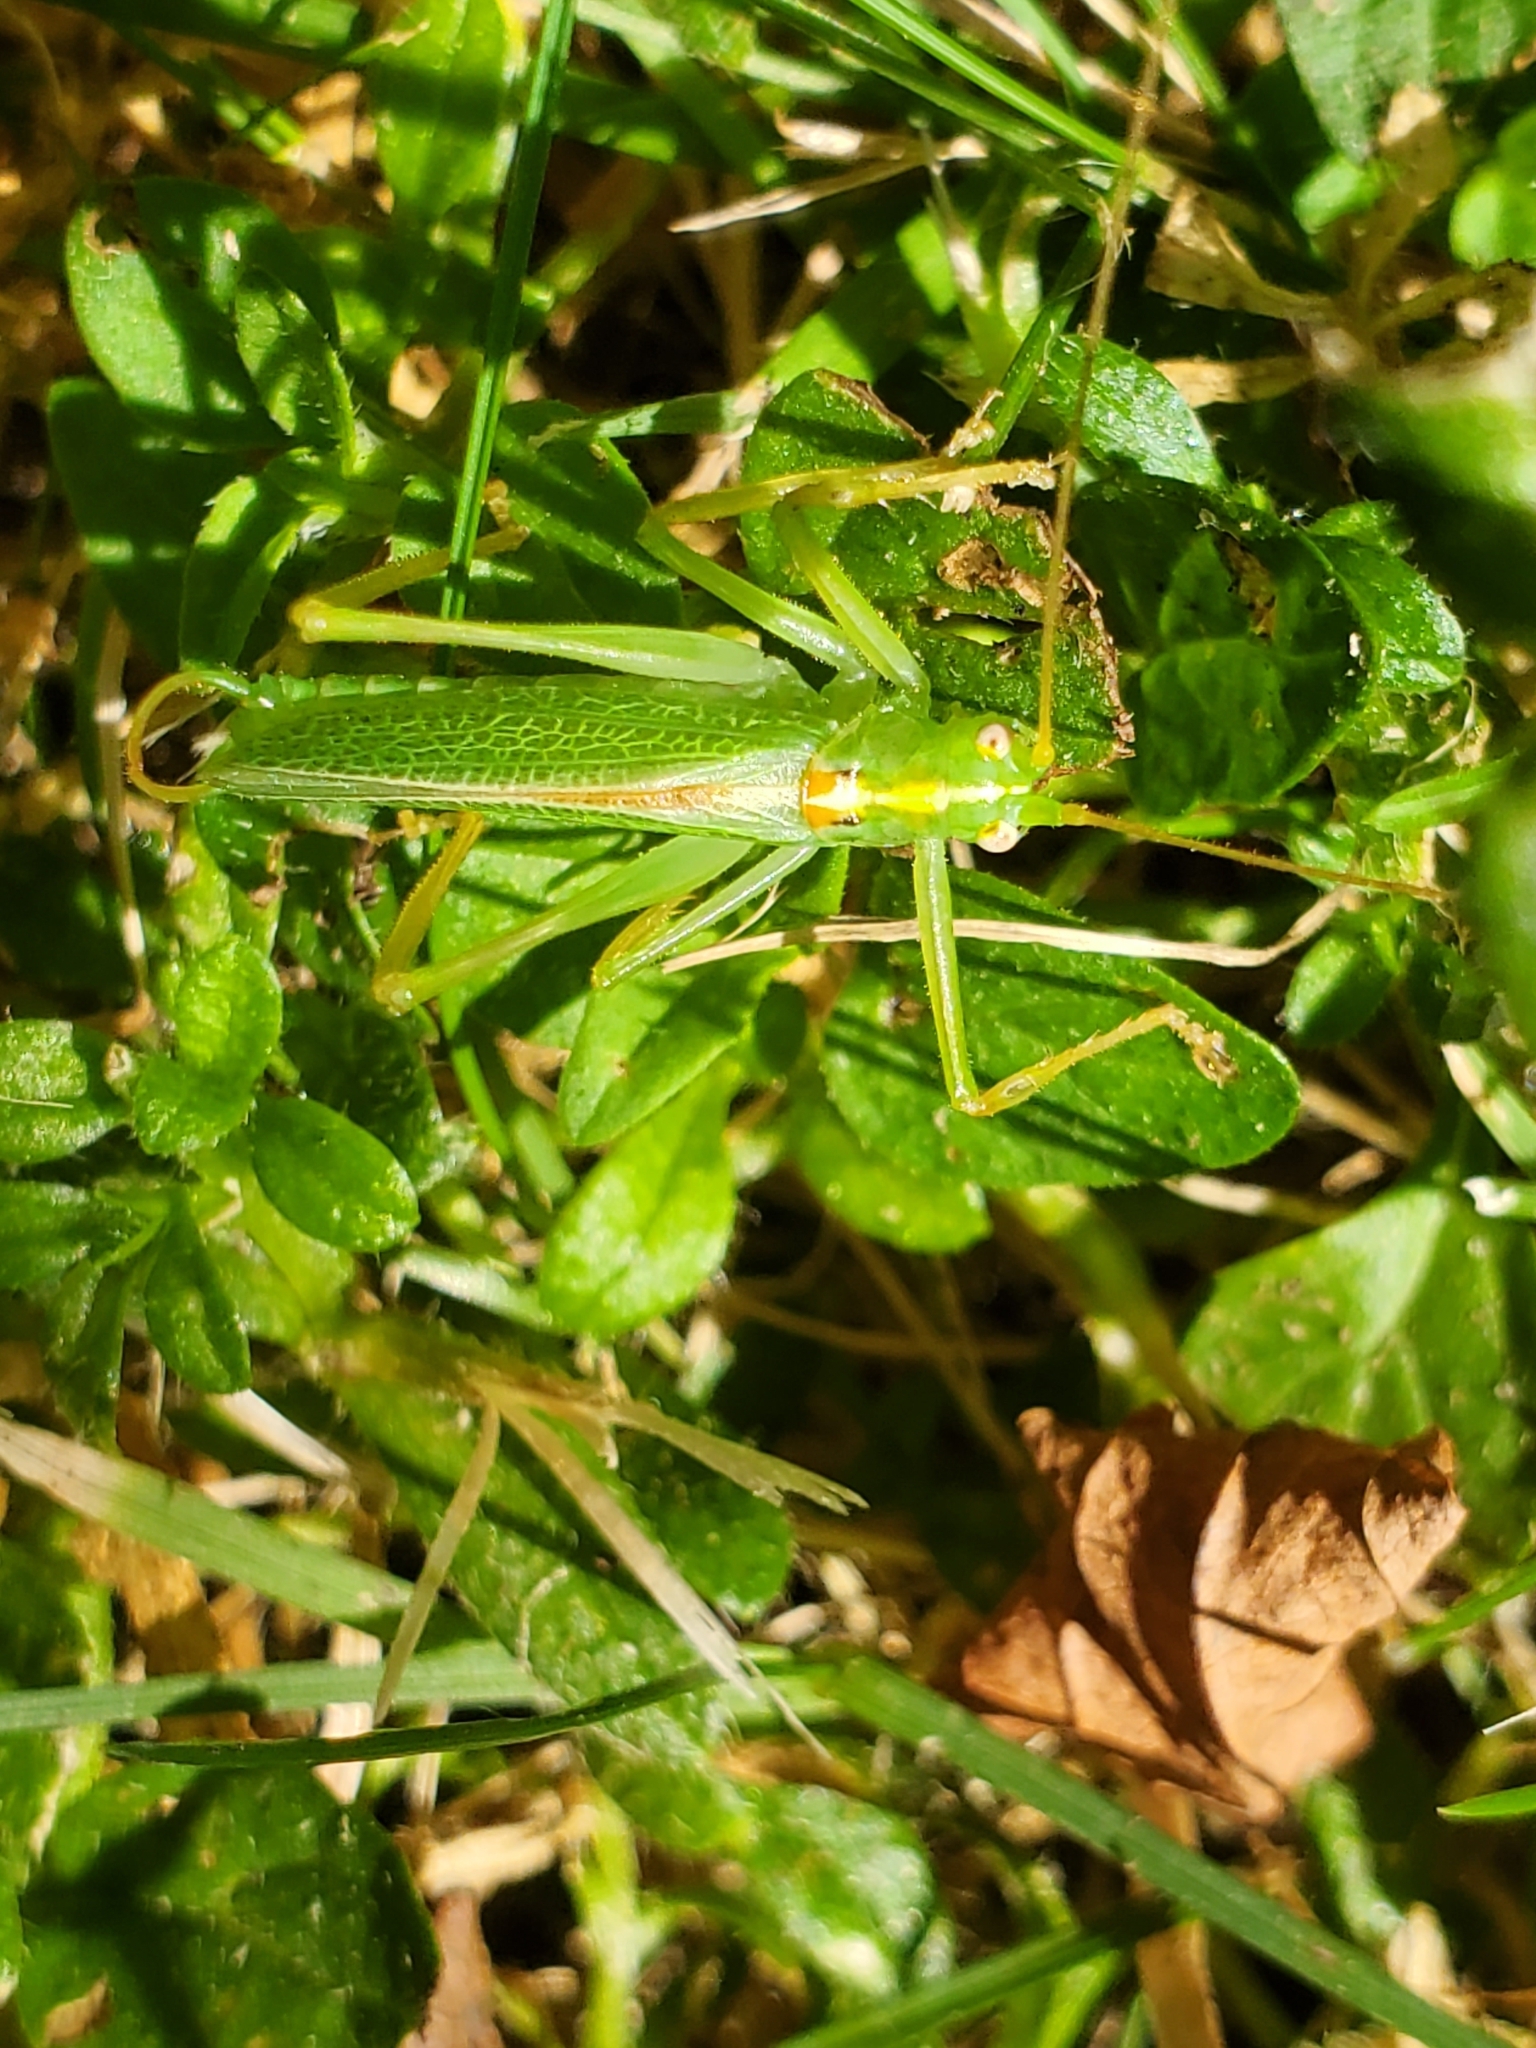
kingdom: Animalia
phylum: Arthropoda
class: Insecta
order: Orthoptera
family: Tettigoniidae
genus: Meconema
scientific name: Meconema thalassinum
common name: Oak bush-cricket
